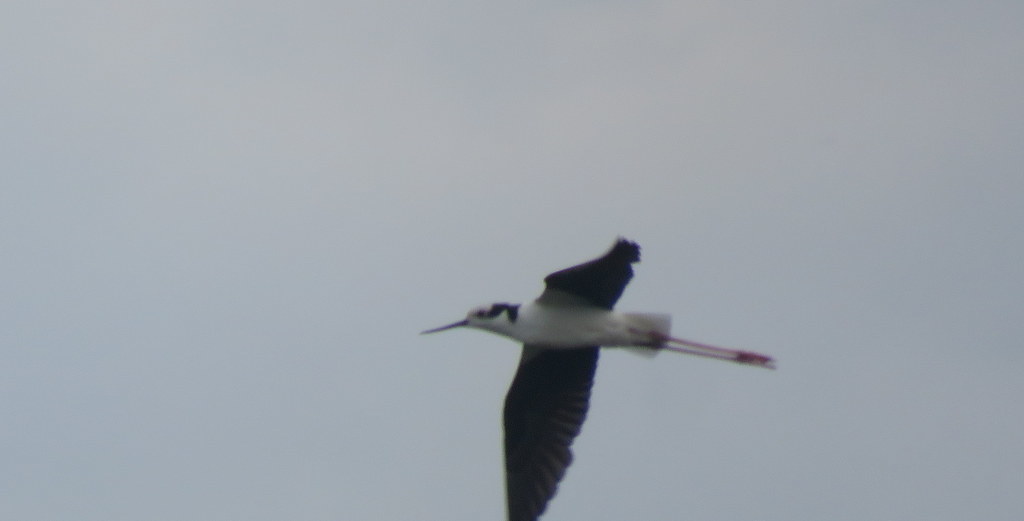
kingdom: Animalia
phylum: Chordata
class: Aves
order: Charadriiformes
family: Recurvirostridae
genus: Himantopus
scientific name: Himantopus mexicanus
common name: Black-necked stilt
